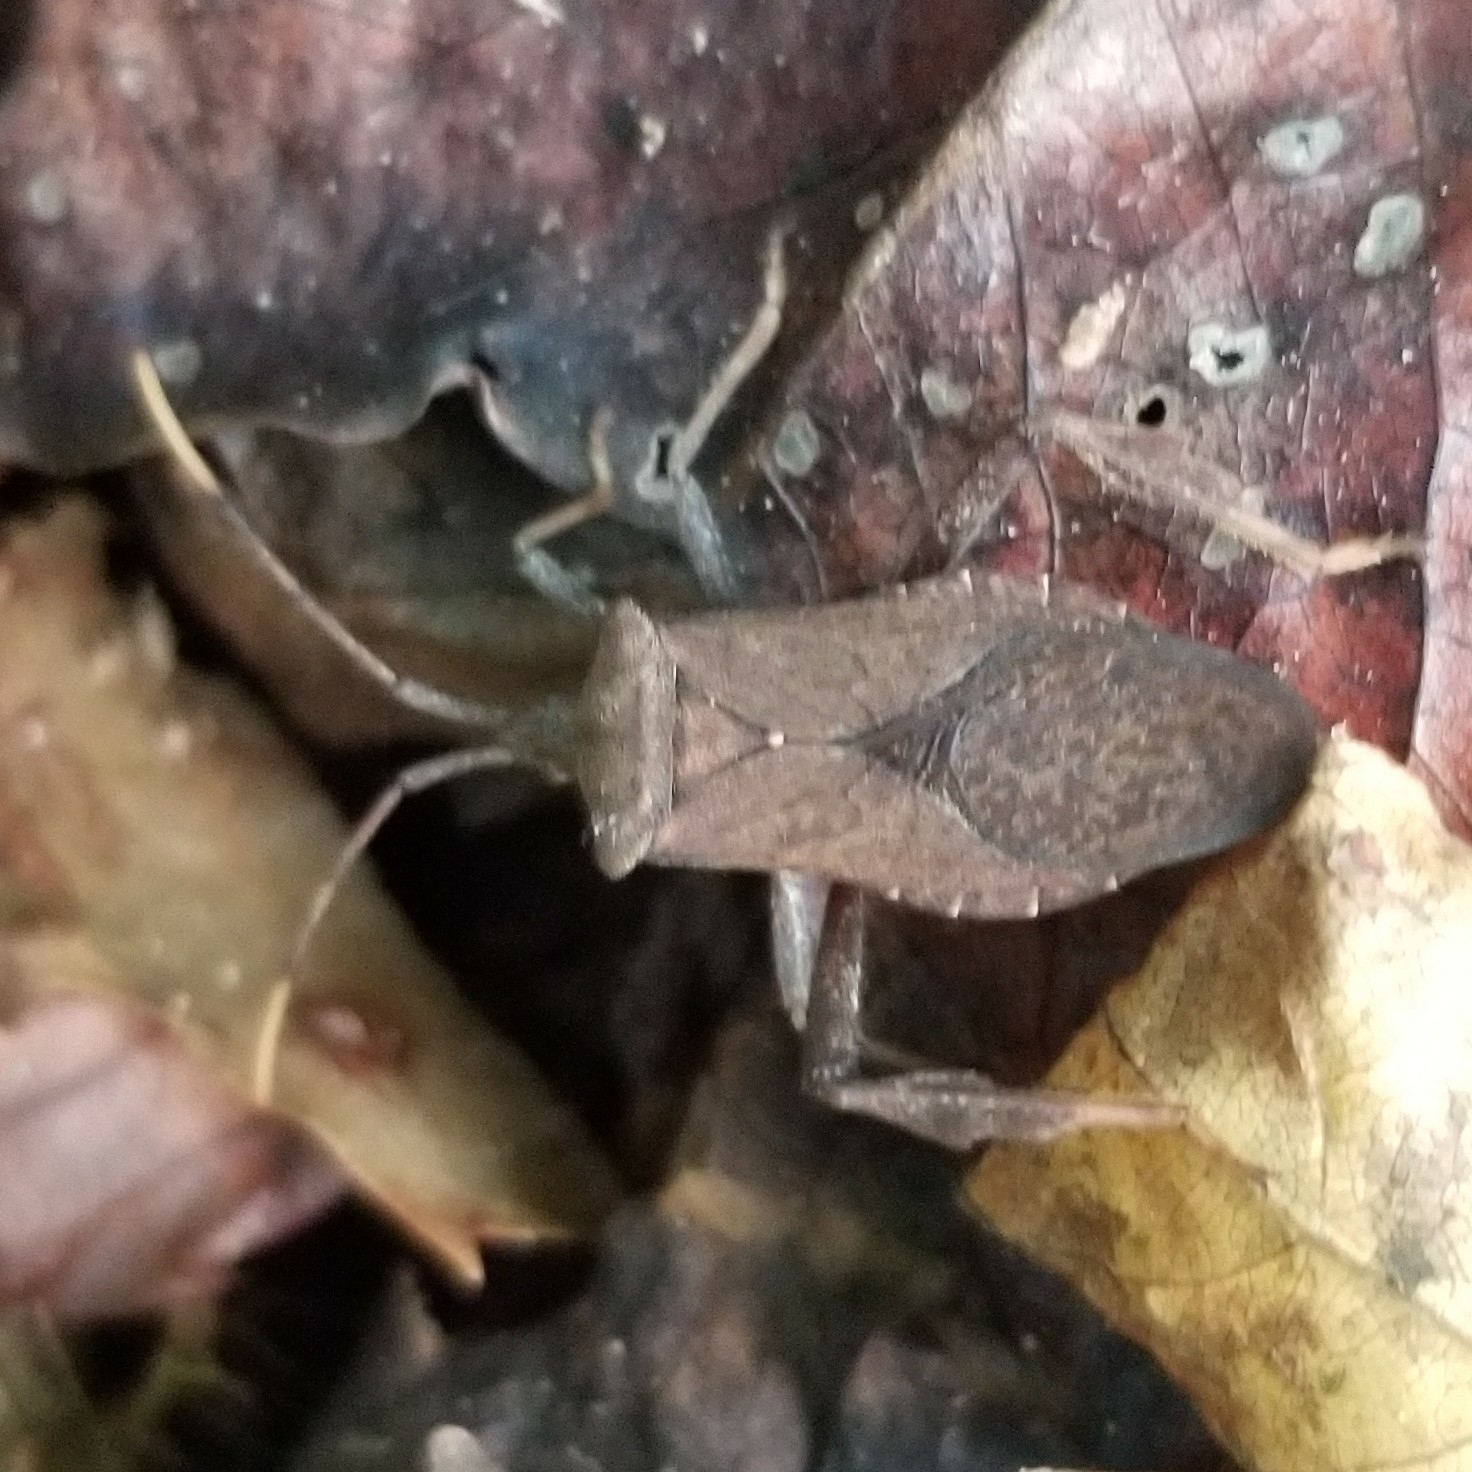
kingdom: Animalia
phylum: Arthropoda
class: Insecta
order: Hemiptera
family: Coreidae
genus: Acanthocephala
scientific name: Acanthocephala terminalis
